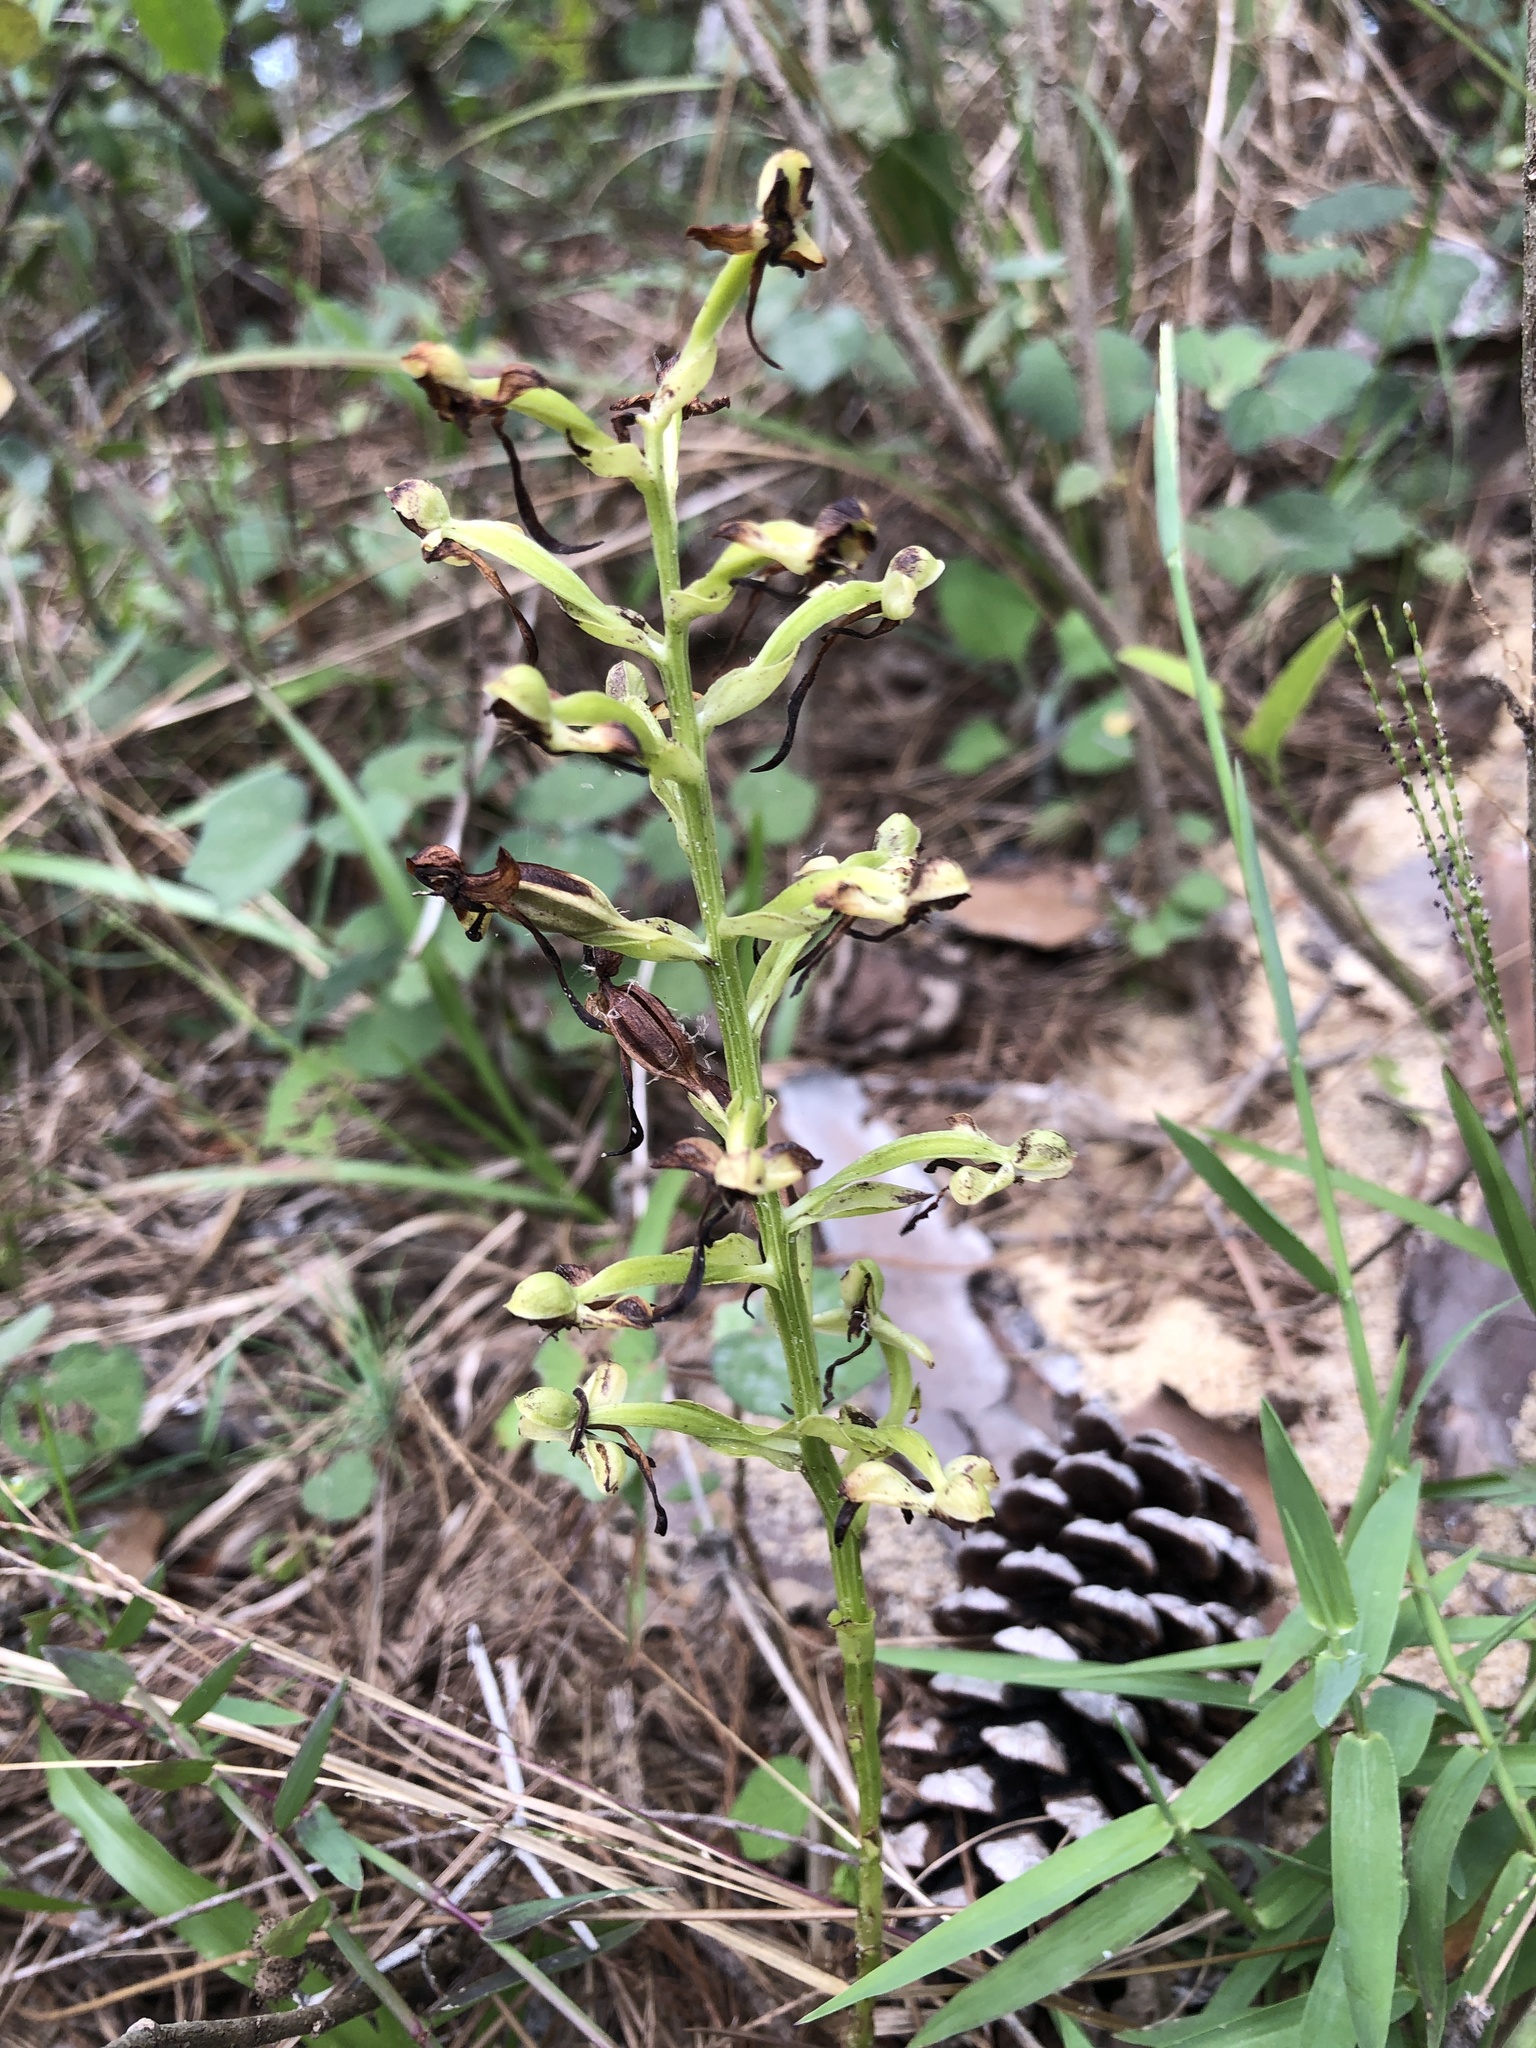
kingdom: Plantae
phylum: Tracheophyta
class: Liliopsida
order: Asparagales
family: Orchidaceae
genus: Habenaria
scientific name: Habenaria floribunda
